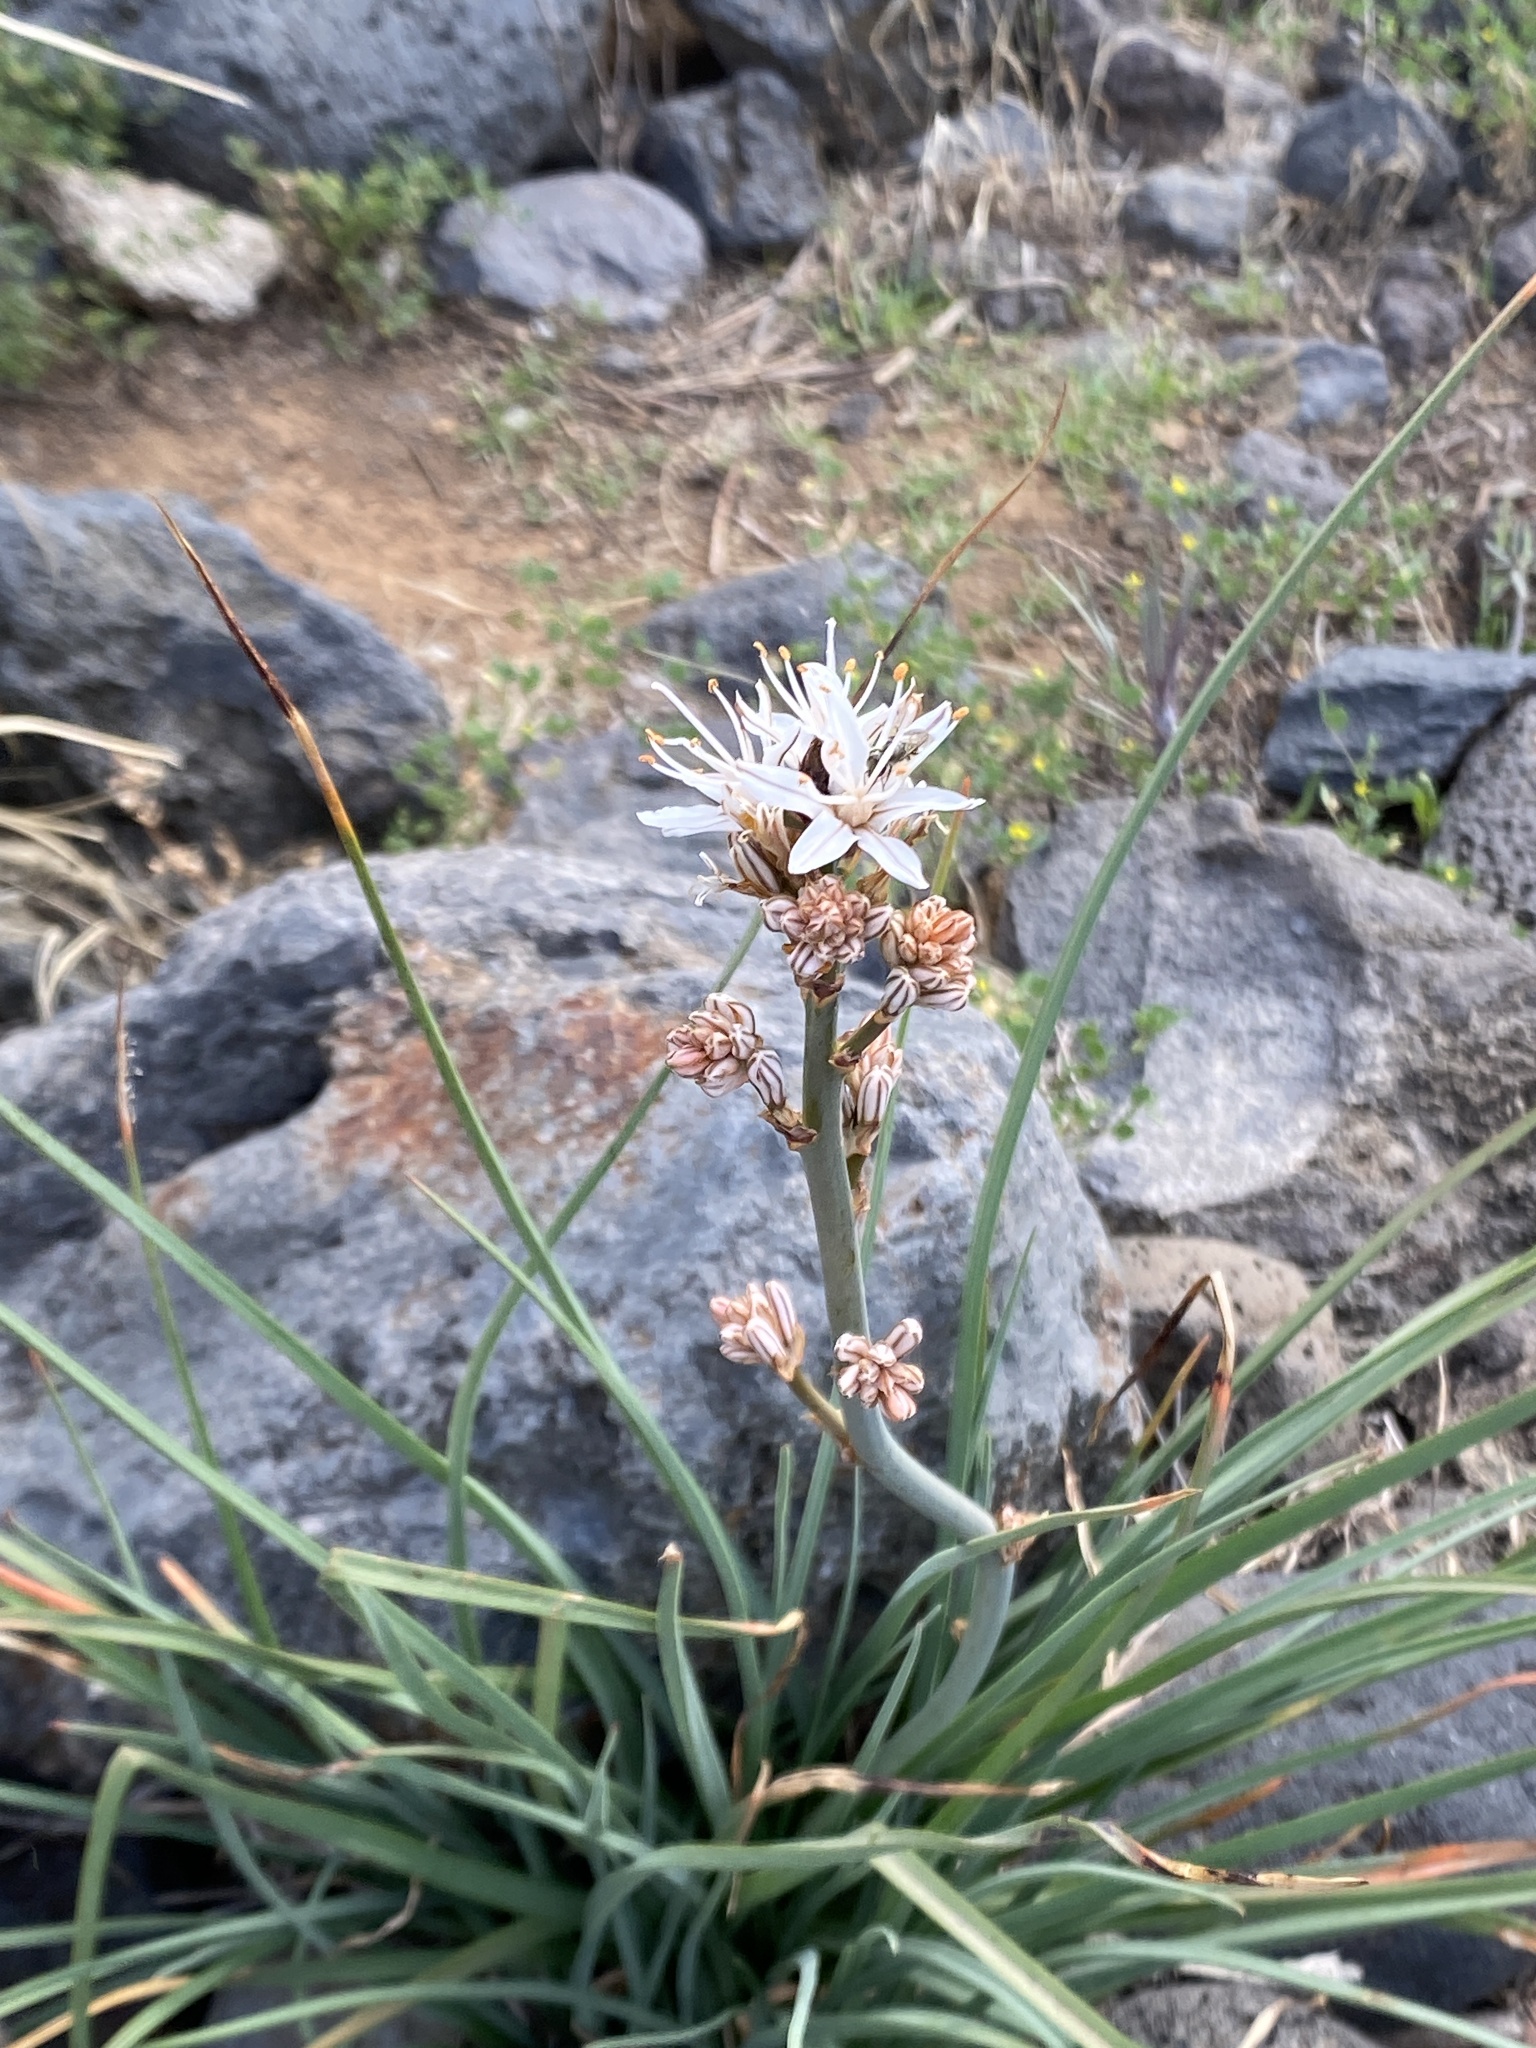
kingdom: Plantae
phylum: Tracheophyta
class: Liliopsida
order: Asparagales
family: Asphodelaceae
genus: Asphodelus
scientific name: Asphodelus ramosus
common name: Silverrod
